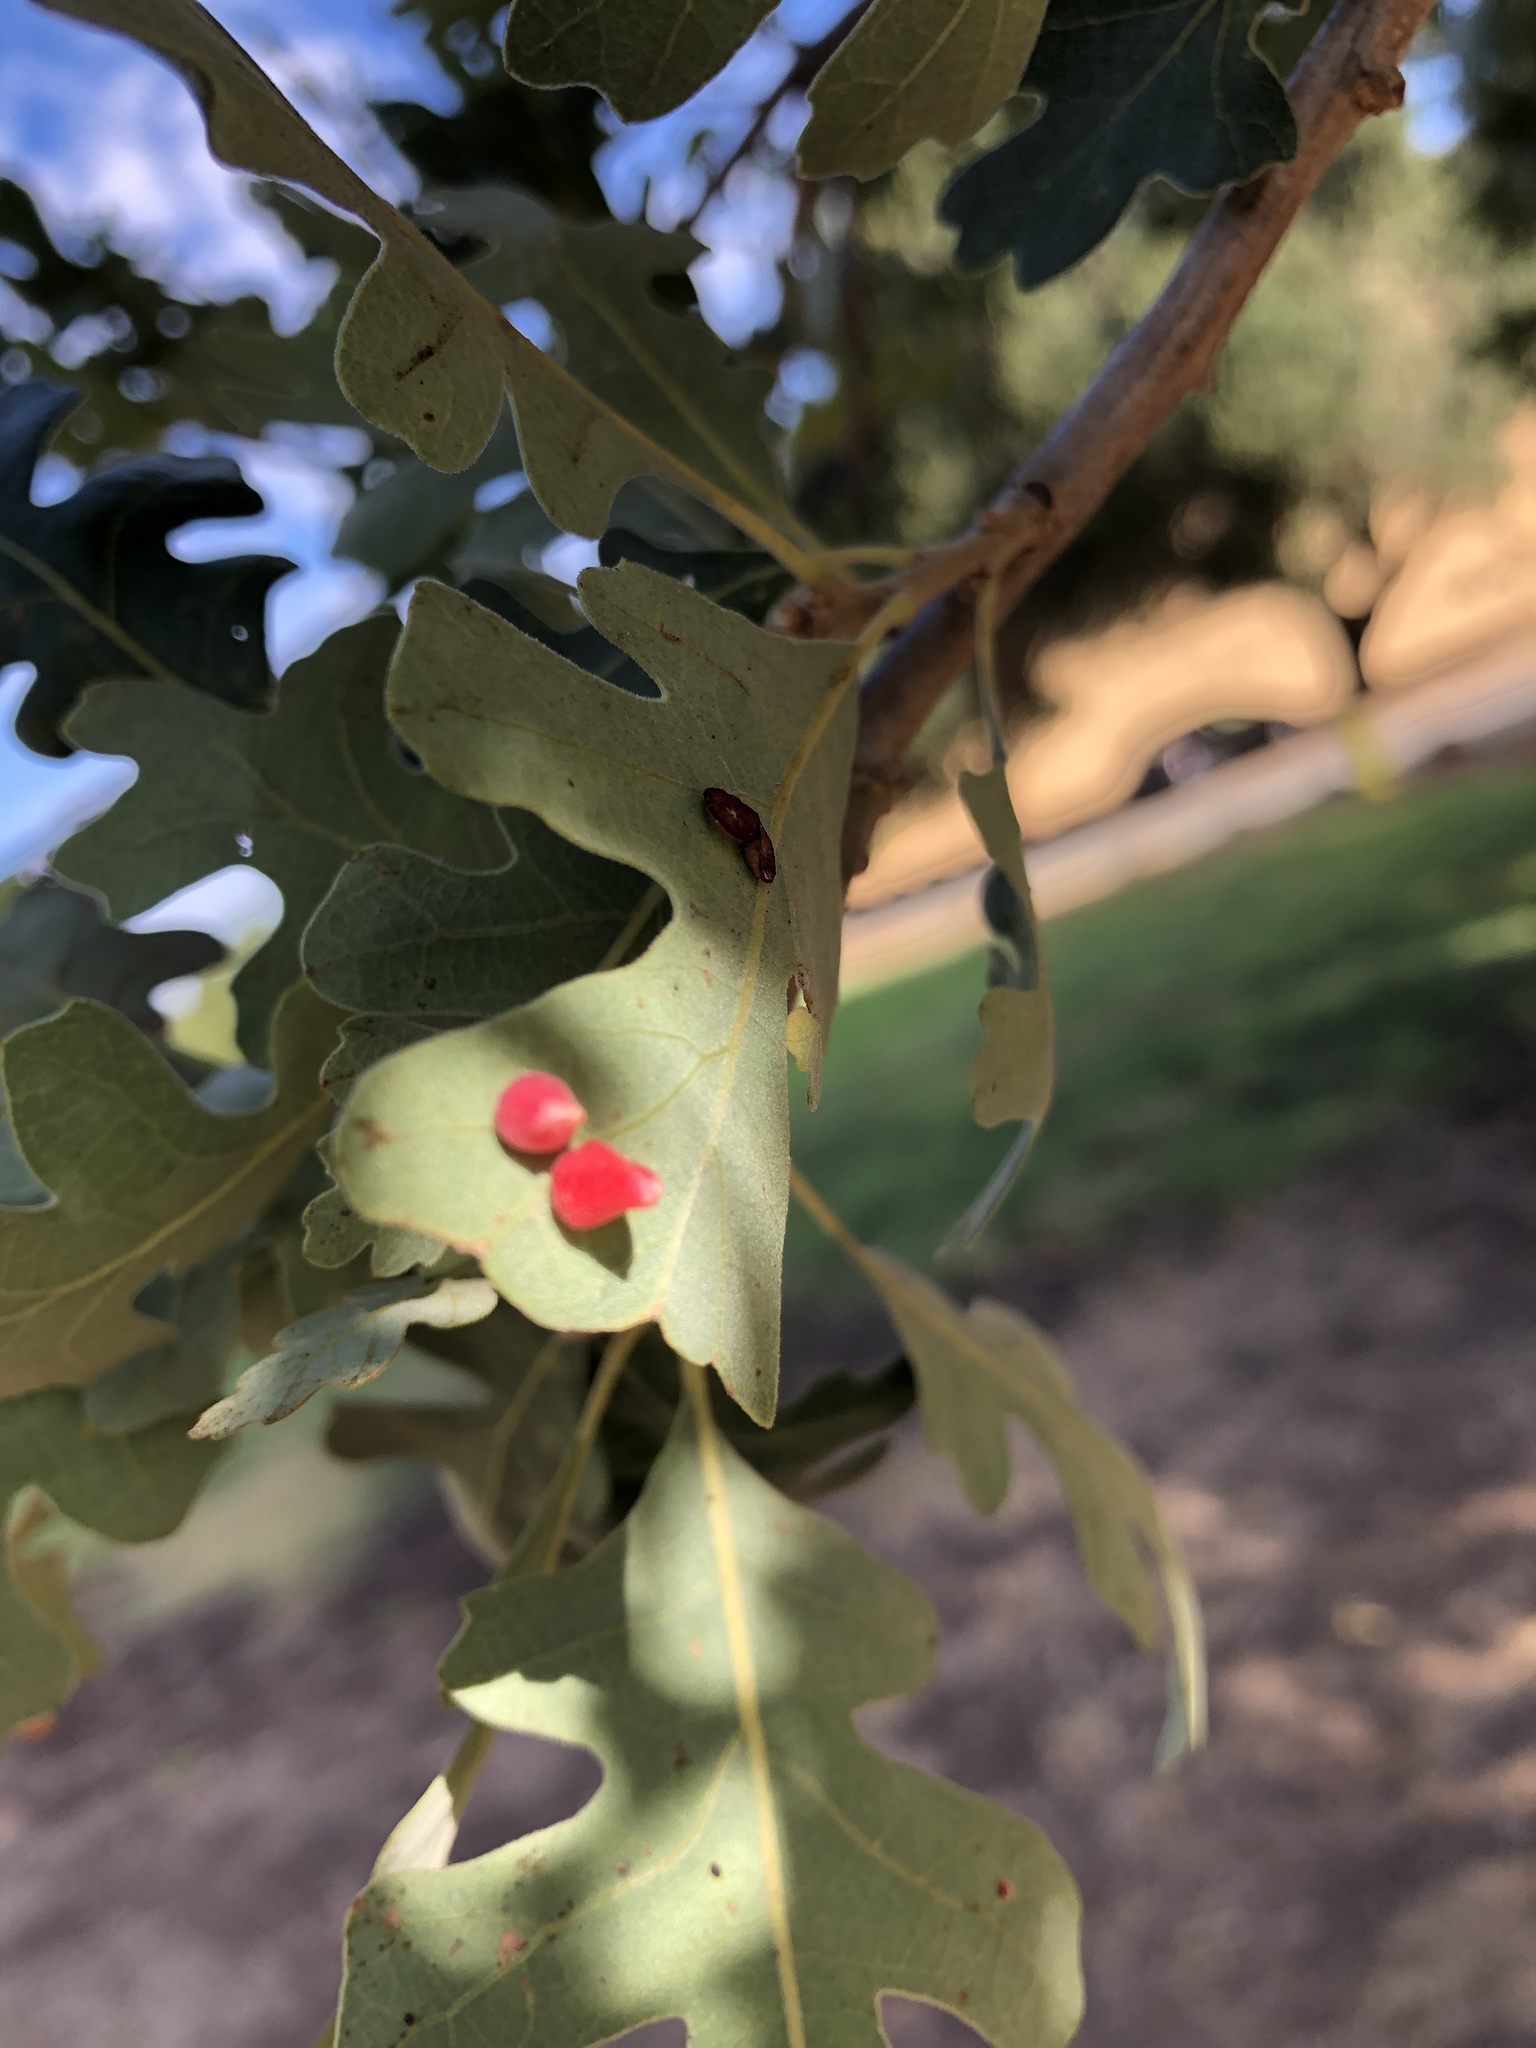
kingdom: Animalia
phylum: Arthropoda
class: Insecta
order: Hymenoptera
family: Cynipidae
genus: Andricus
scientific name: Andricus
